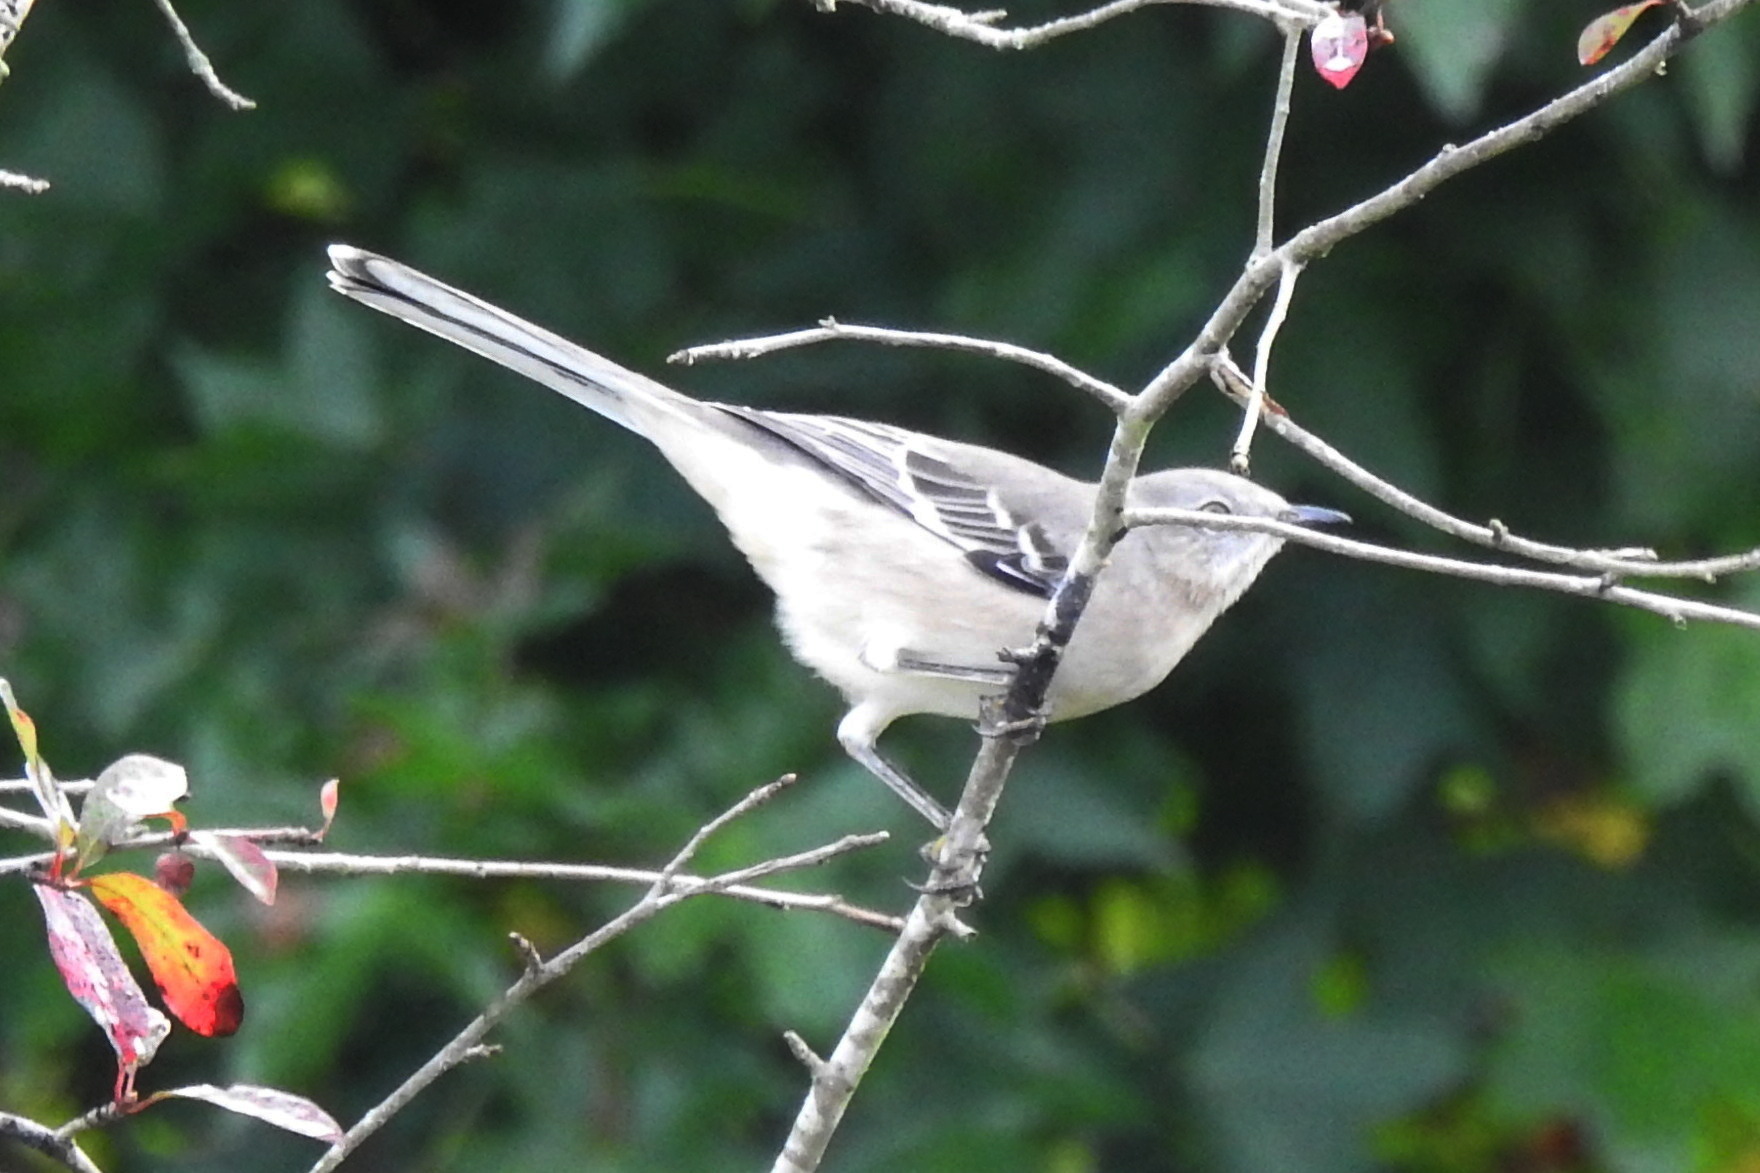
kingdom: Animalia
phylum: Chordata
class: Aves
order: Passeriformes
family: Mimidae
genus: Mimus
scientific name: Mimus polyglottos
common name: Northern mockingbird
